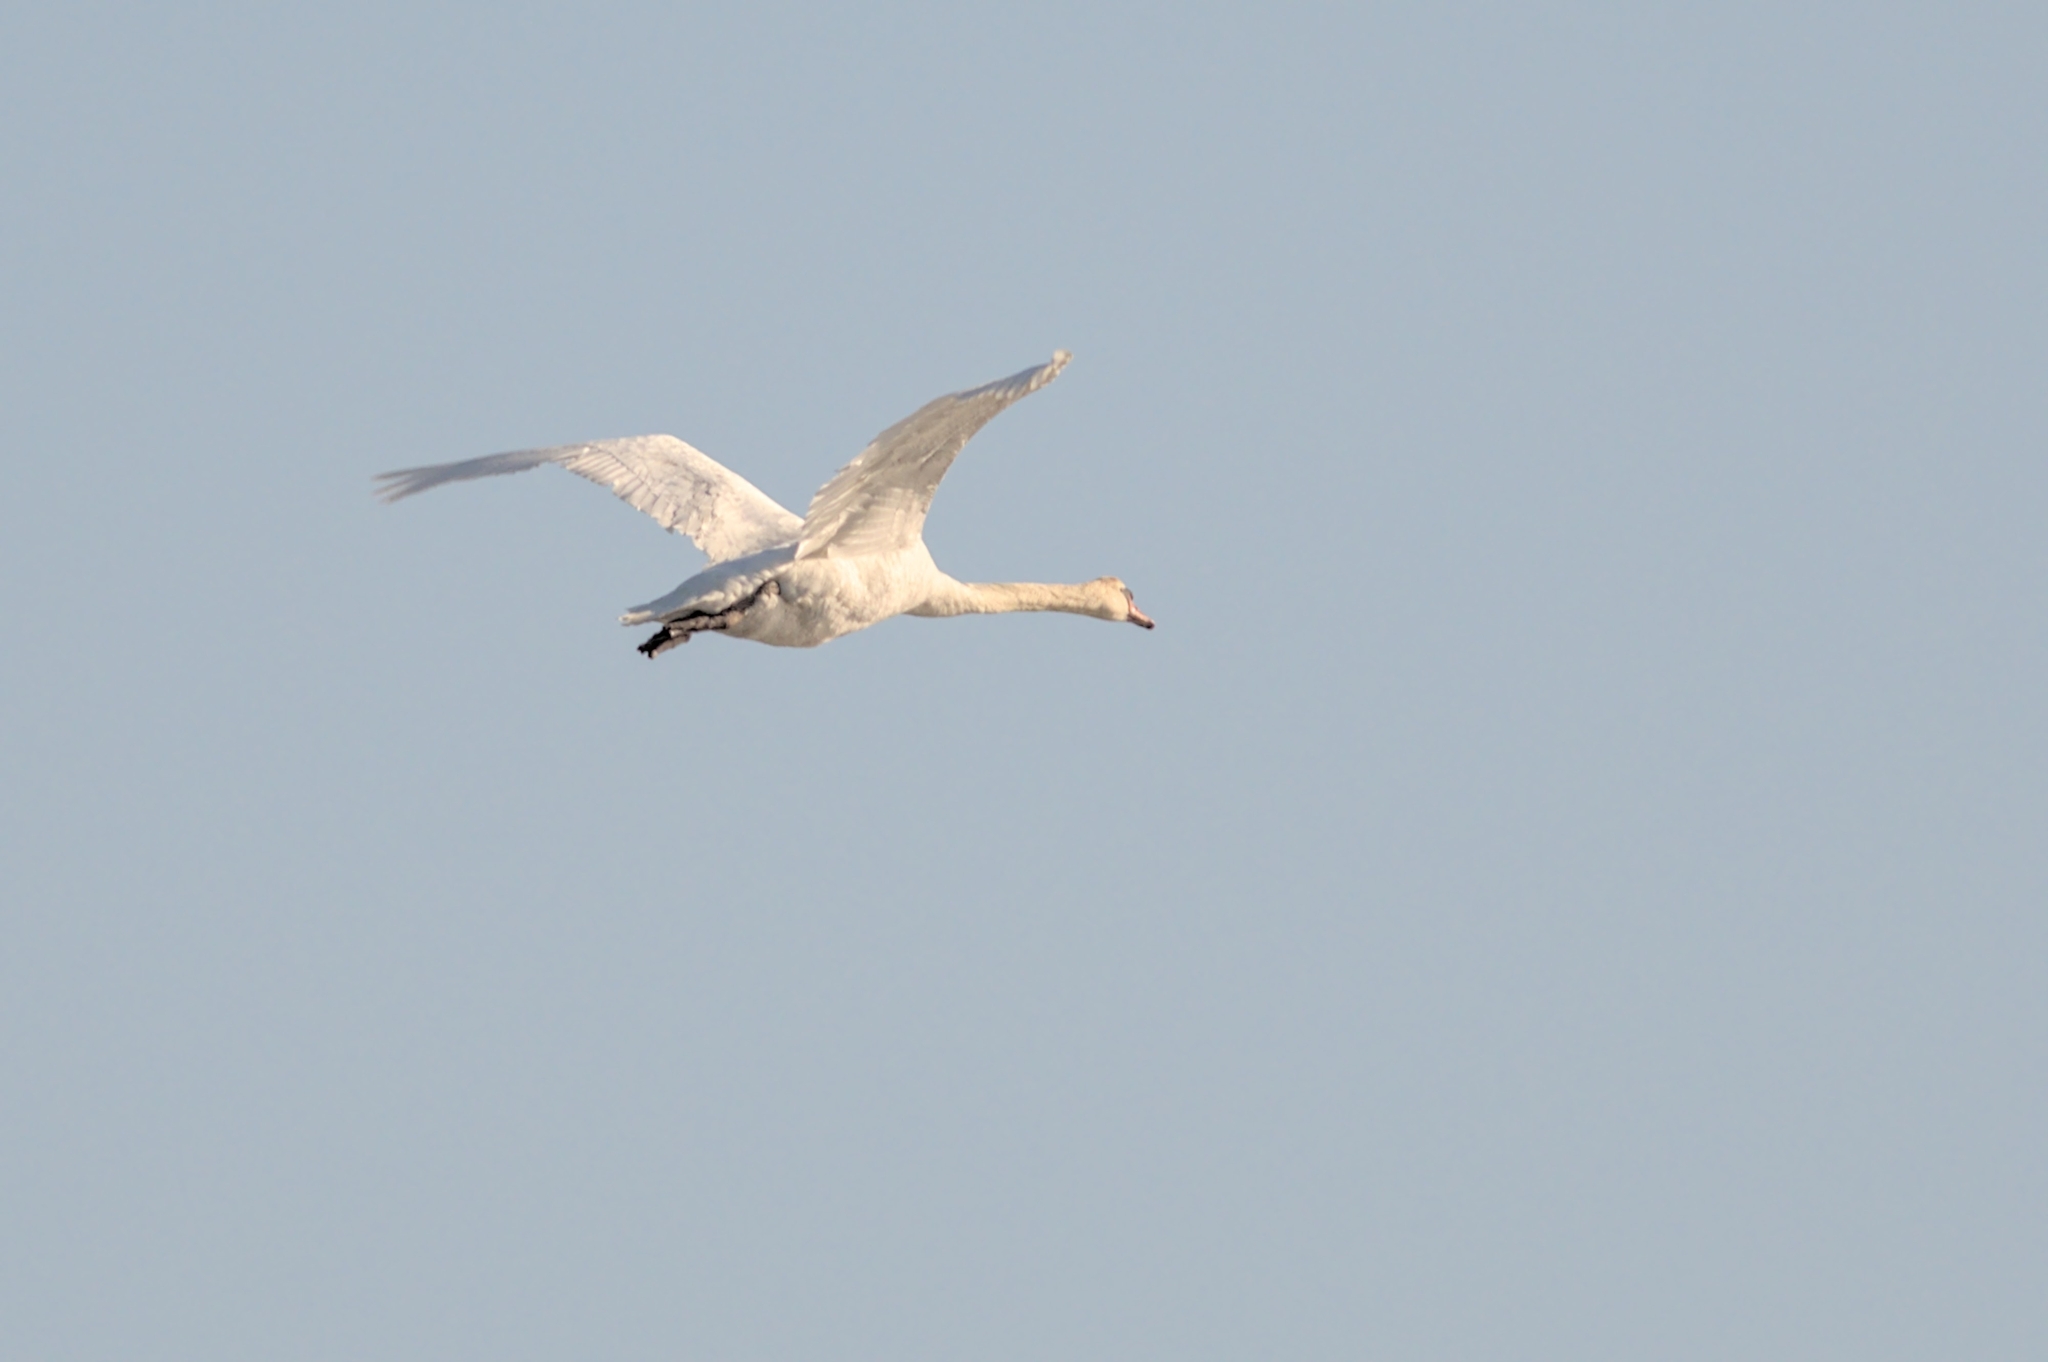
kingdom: Animalia
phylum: Chordata
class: Aves
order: Anseriformes
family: Anatidae
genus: Cygnus
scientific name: Cygnus olor
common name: Mute swan
